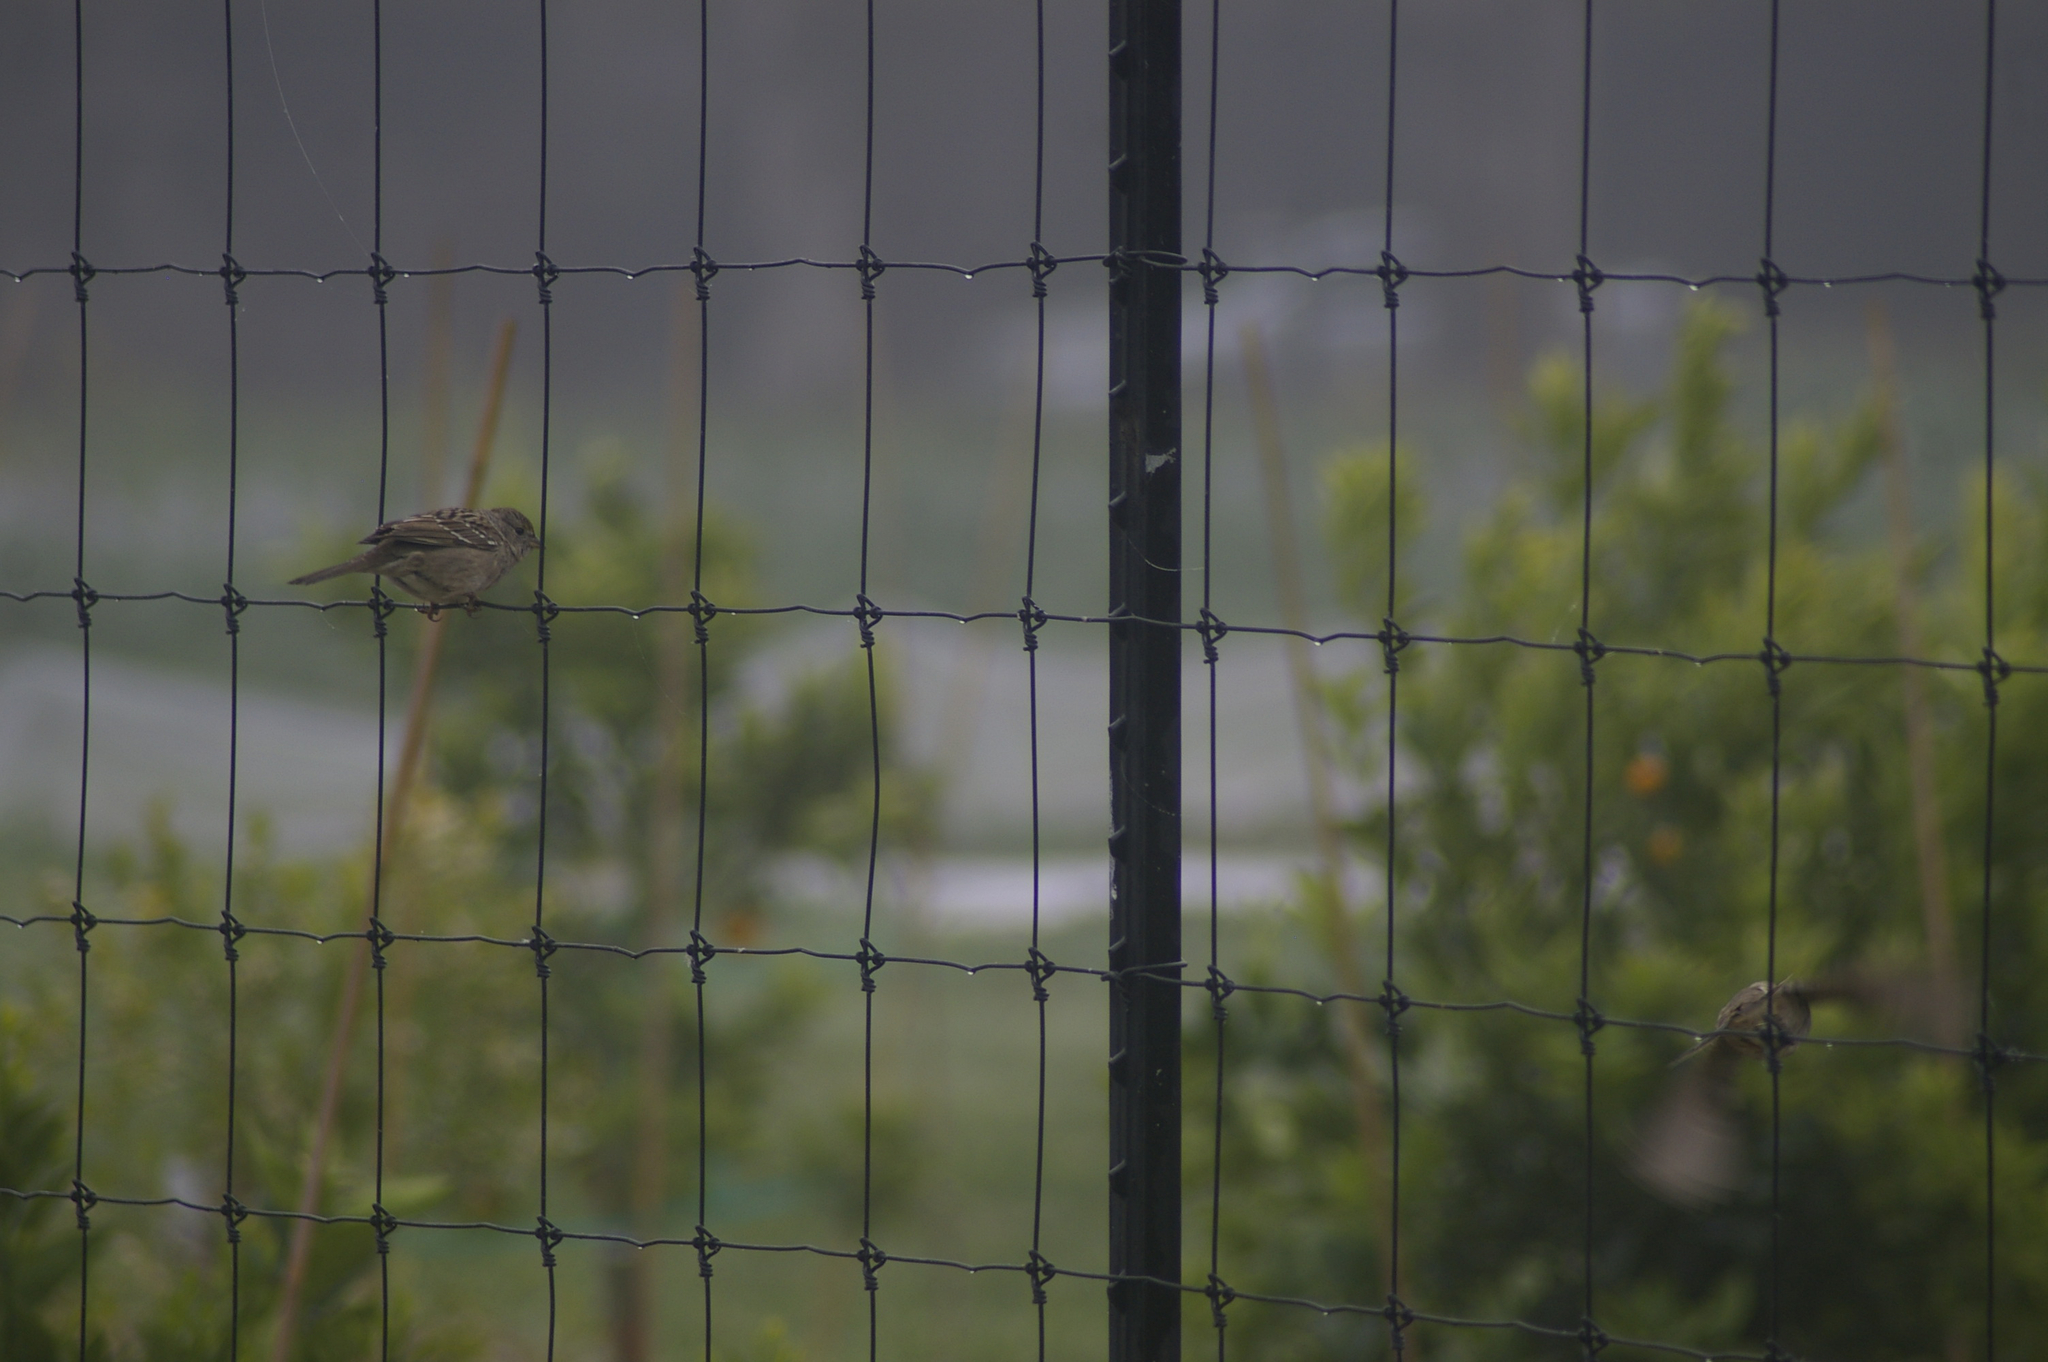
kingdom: Animalia
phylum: Chordata
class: Aves
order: Passeriformes
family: Passerellidae
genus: Zonotrichia
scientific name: Zonotrichia atricapilla
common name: Golden-crowned sparrow
